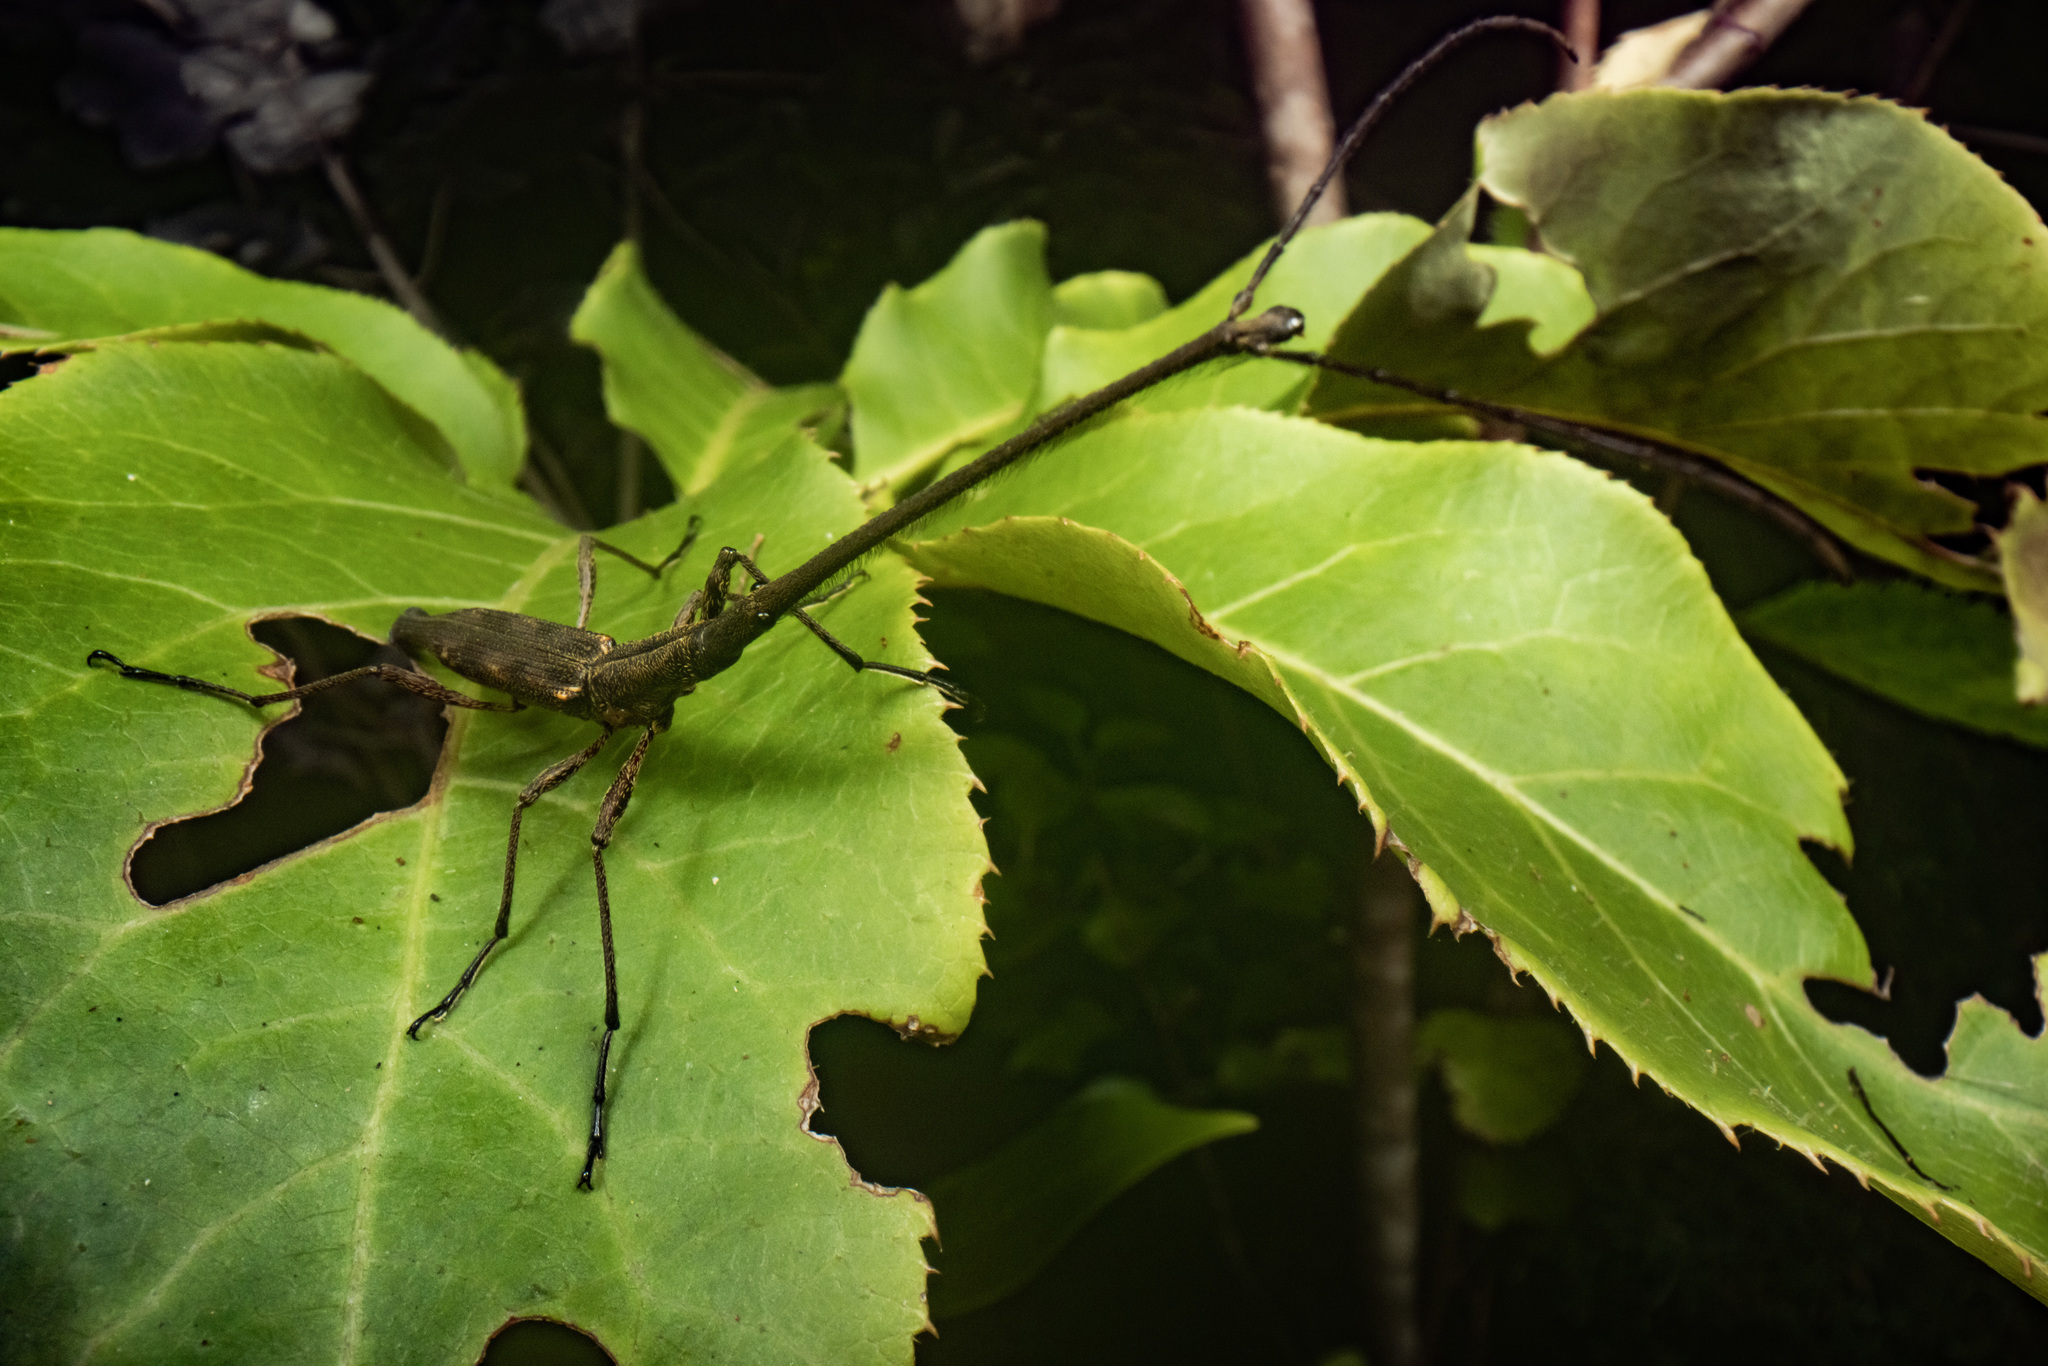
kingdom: Animalia
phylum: Arthropoda
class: Insecta
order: Coleoptera
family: Brentidae
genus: Lasiorhynchus
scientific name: Lasiorhynchus barbicornis
